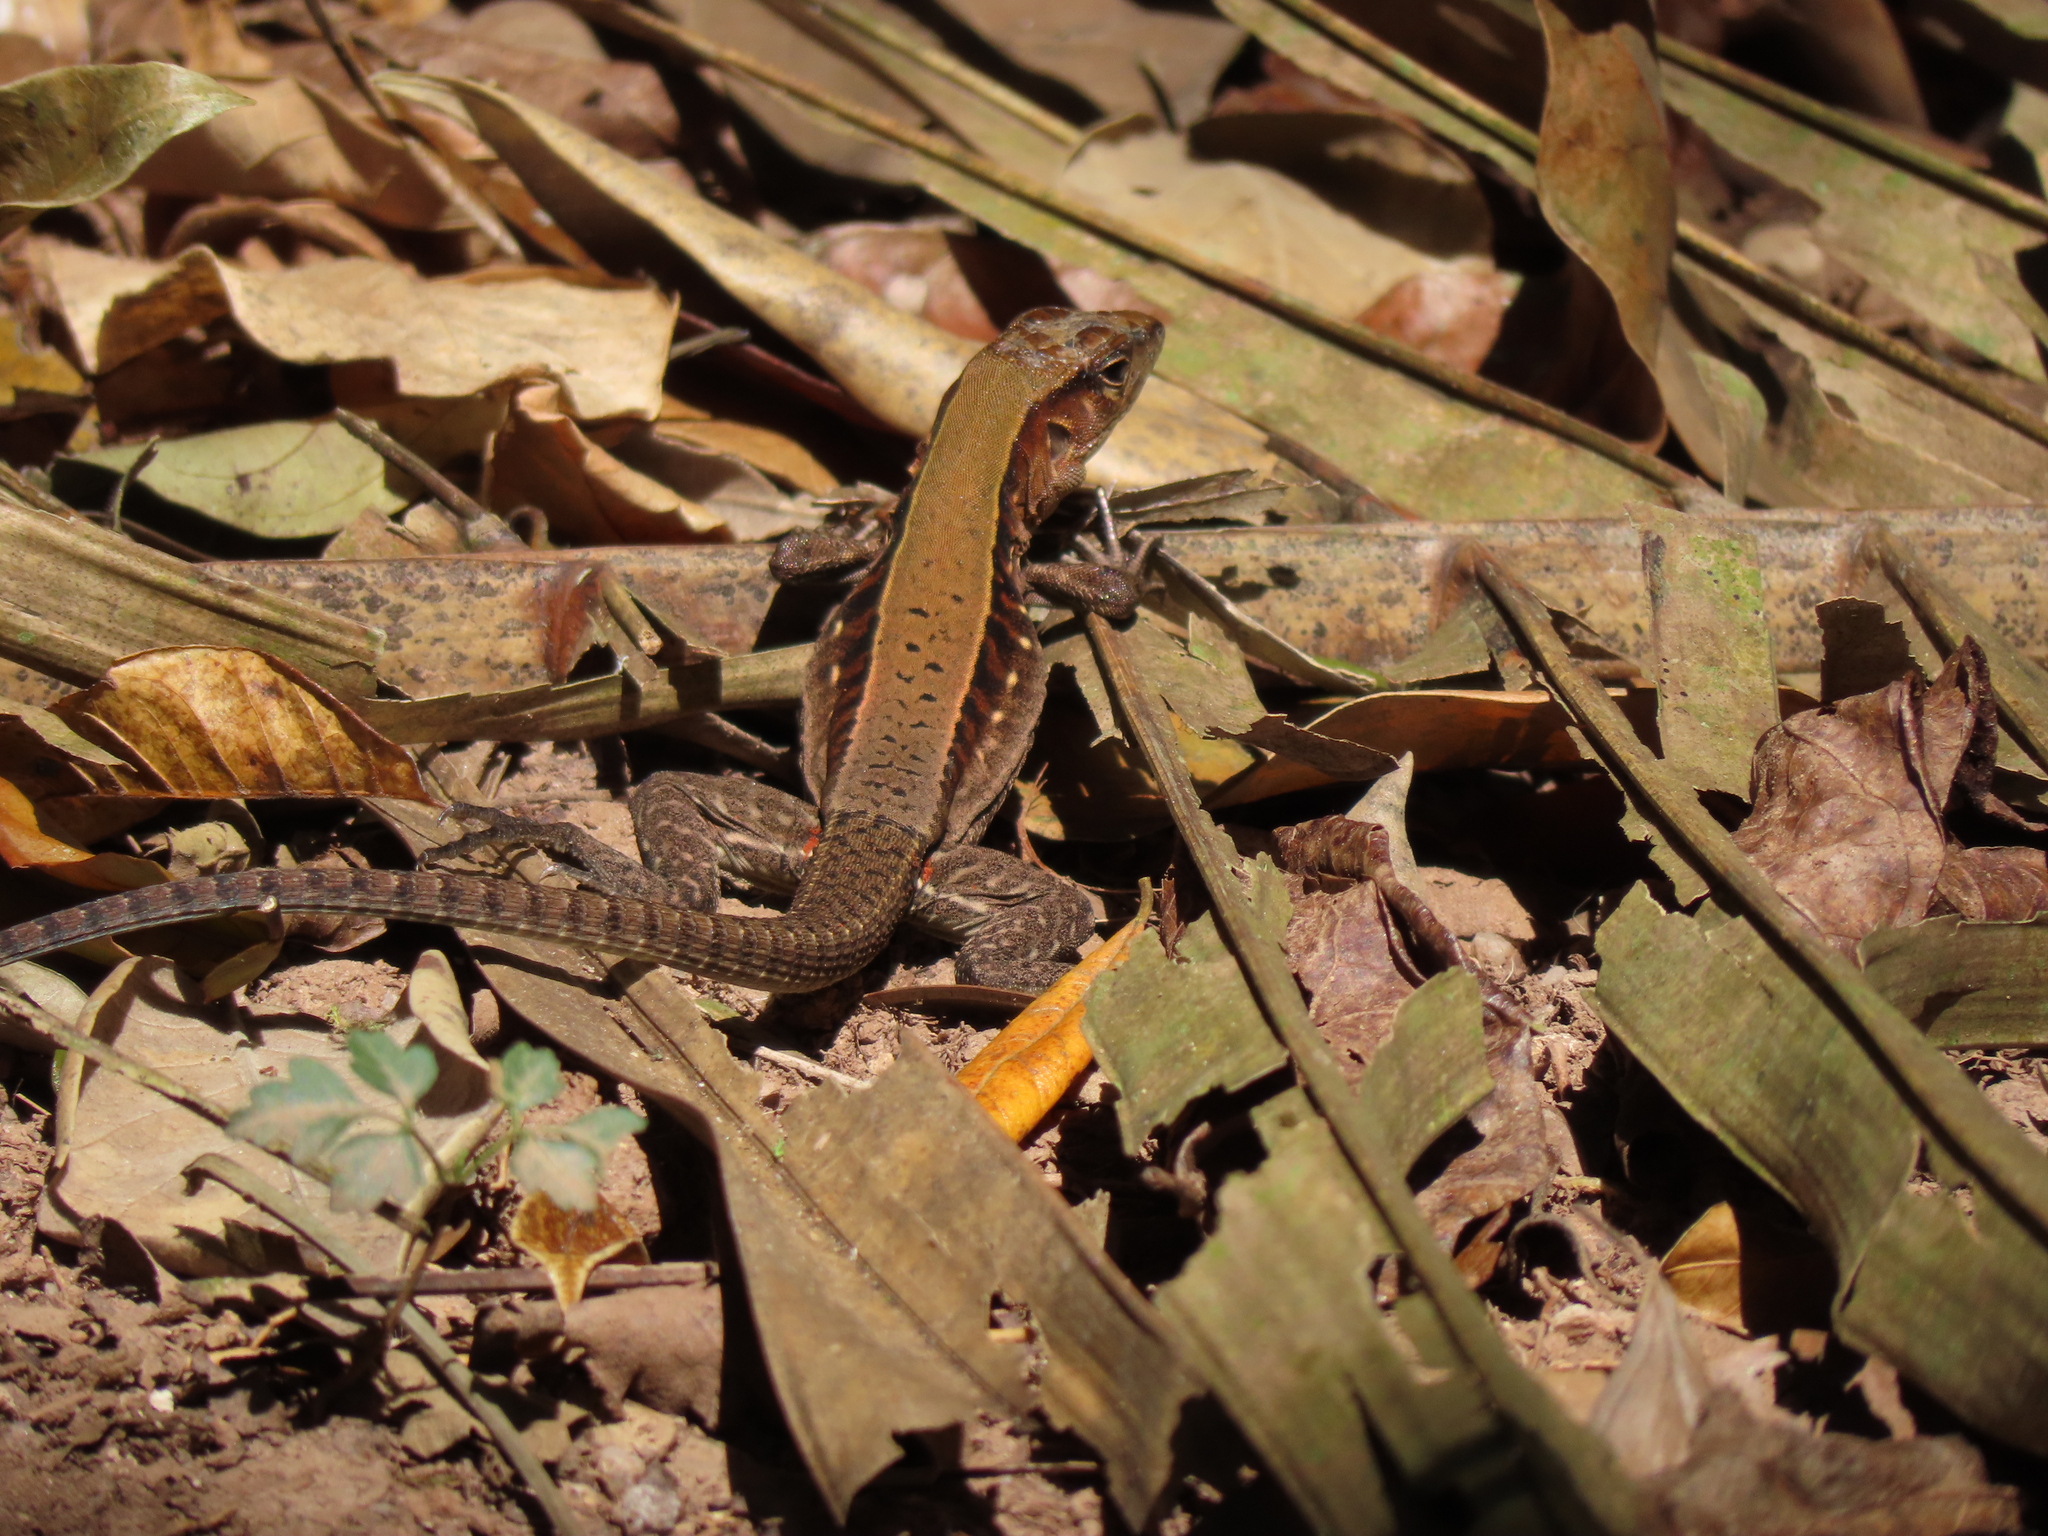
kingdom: Animalia
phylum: Chordata
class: Squamata
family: Teiidae
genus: Holcosus
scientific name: Holcosus undulatus
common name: Rainbow ameiva
